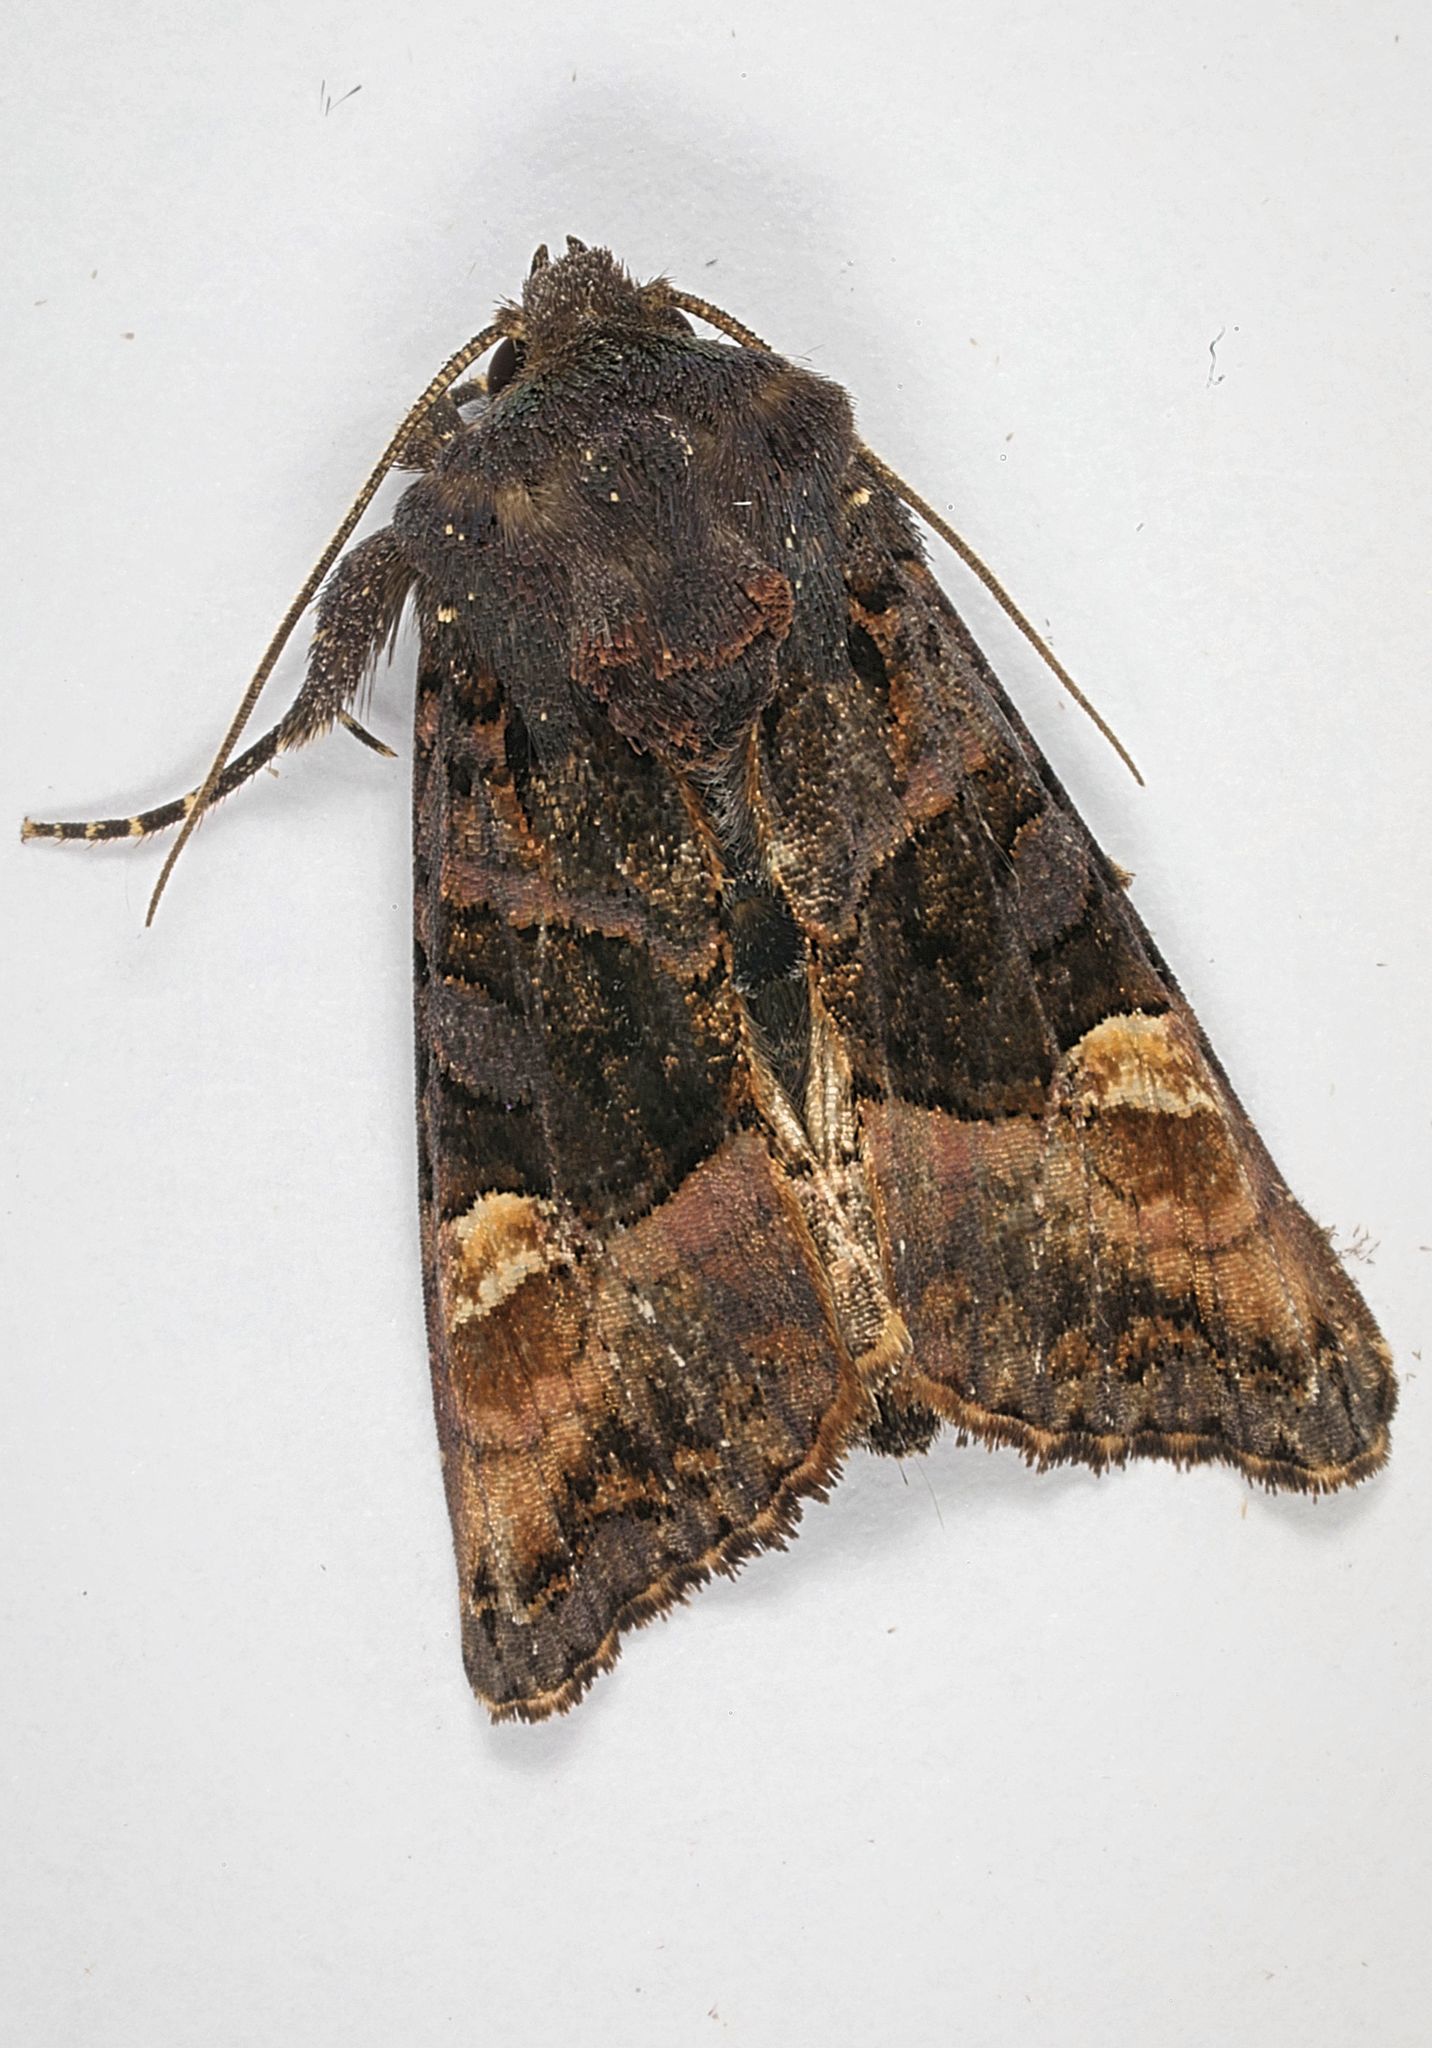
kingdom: Animalia
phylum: Arthropoda
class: Insecta
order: Lepidoptera
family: Noctuidae
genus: Euplexia
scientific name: Euplexia lucipara
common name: Small angle shades
